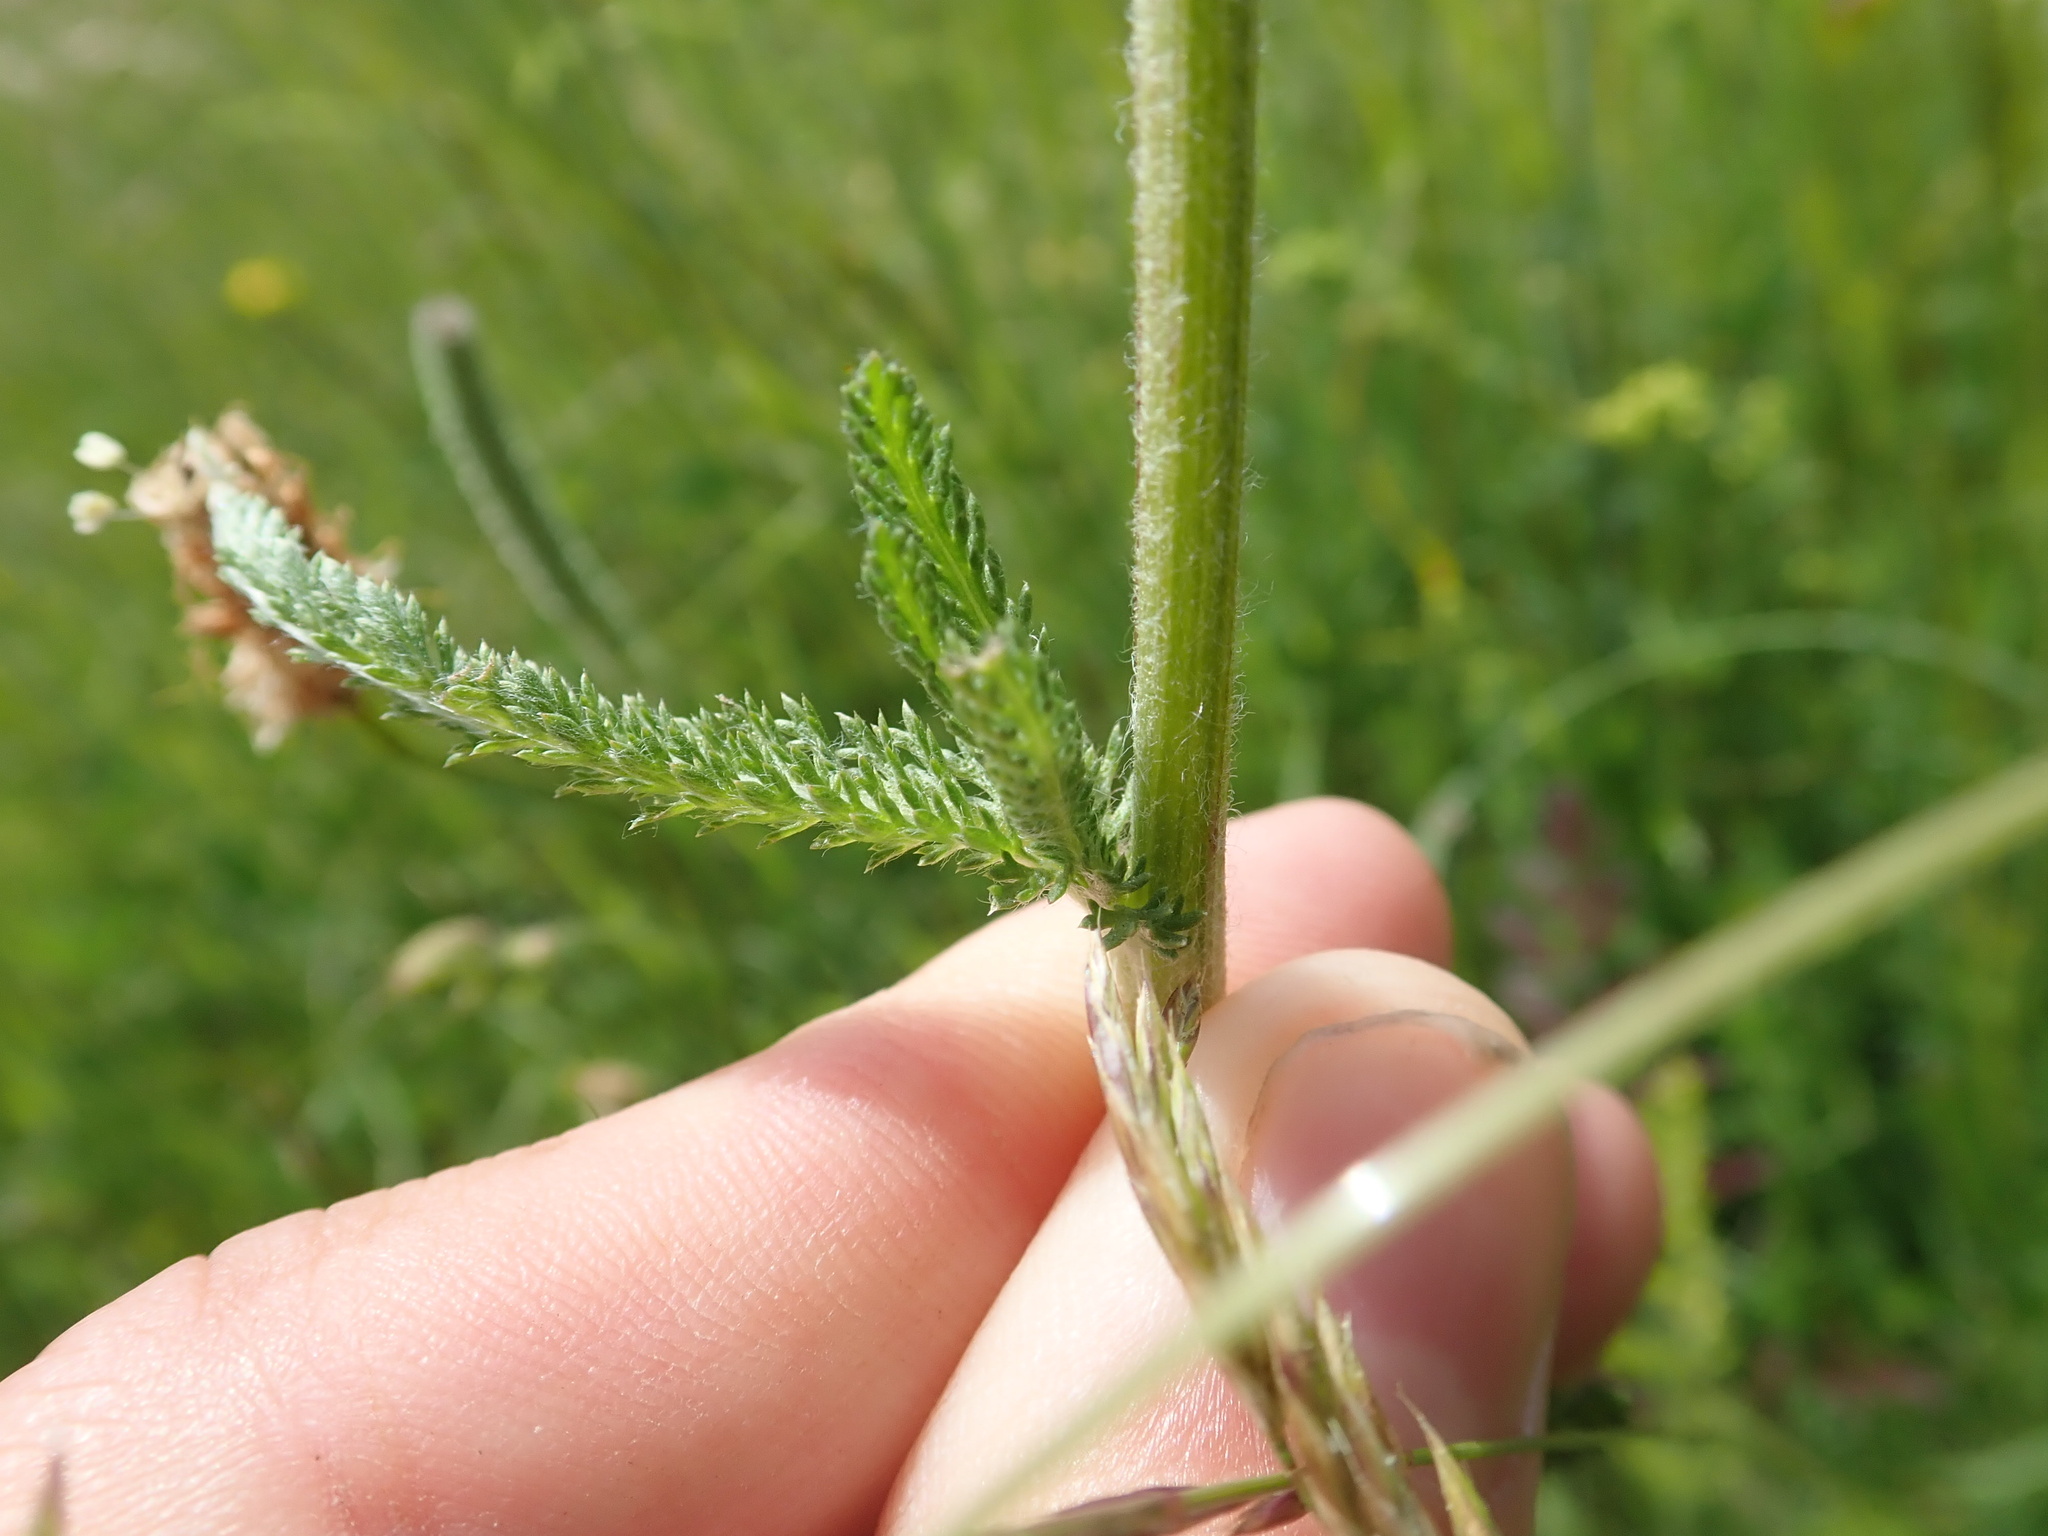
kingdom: Plantae
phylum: Tracheophyta
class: Magnoliopsida
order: Asterales
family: Asteraceae
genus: Achillea
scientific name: Achillea millefolium
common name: Yarrow
